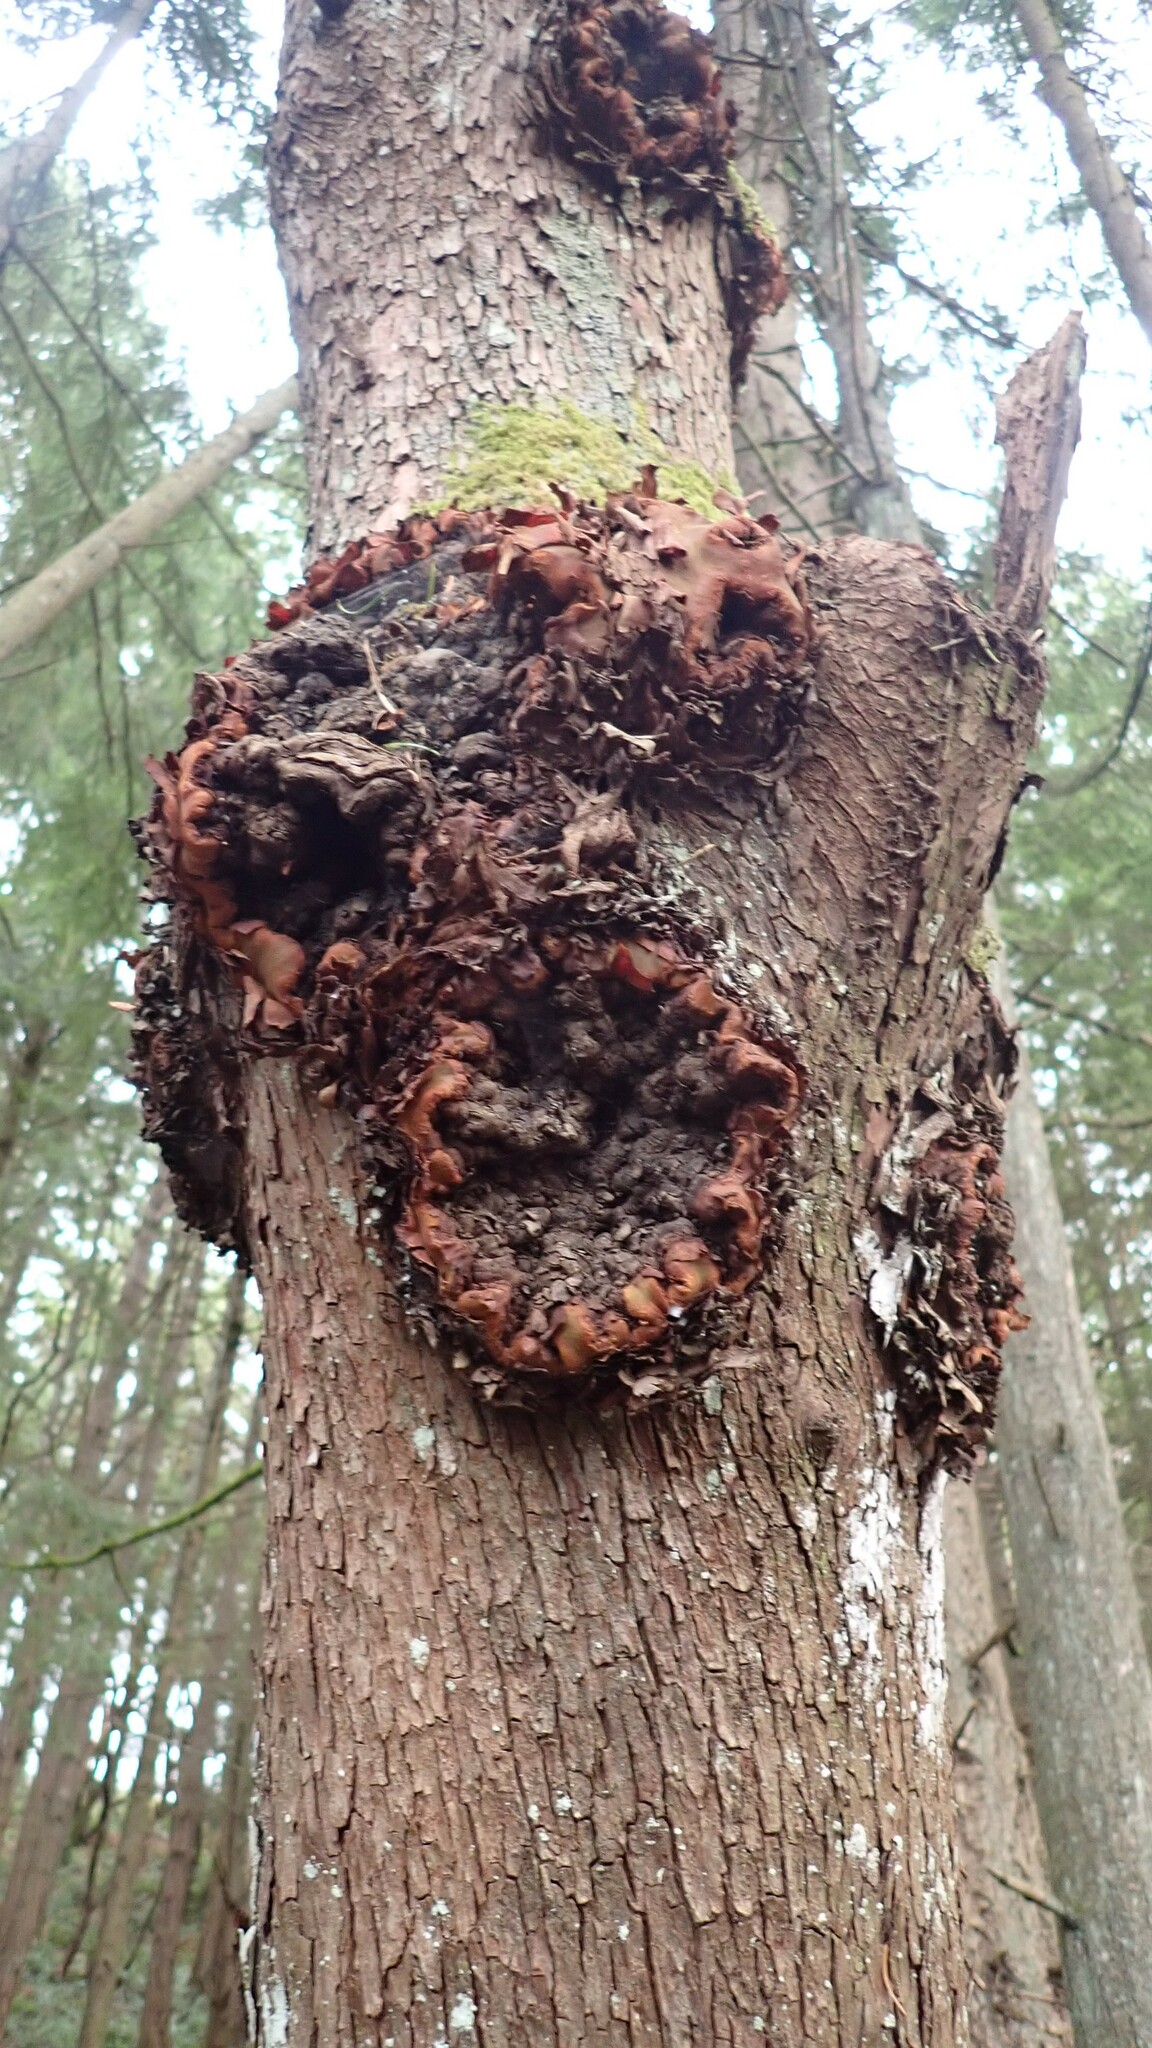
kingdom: Fungi
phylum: Ascomycota
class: Dothideomycetes
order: Botryosphaeriales
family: Botryosphaeriaceae
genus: Neofusicoccum
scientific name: Neofusicoccum arbuti
